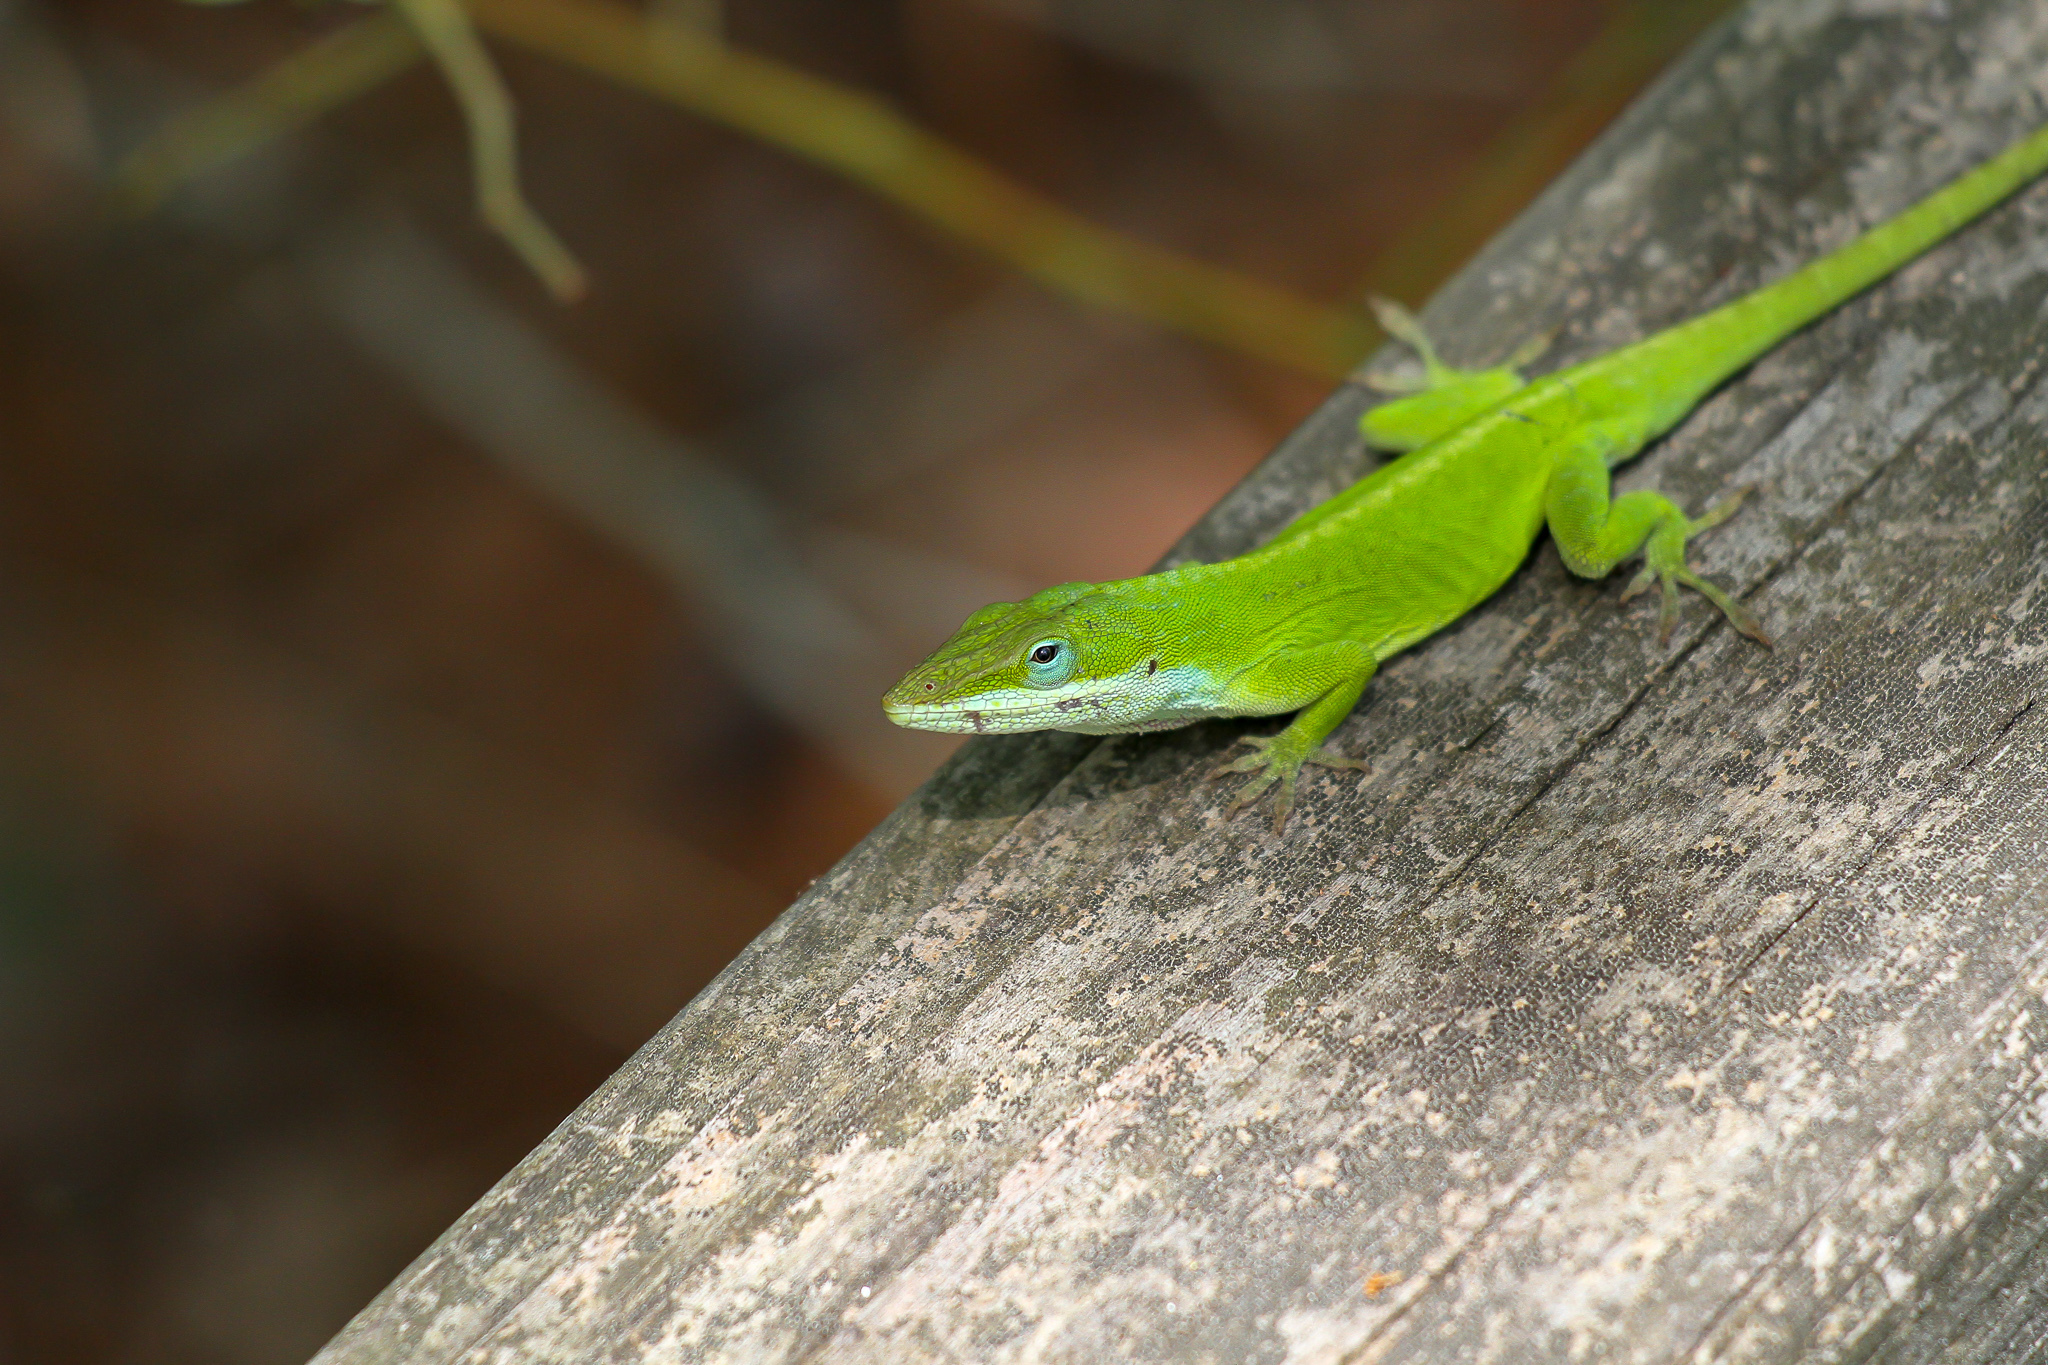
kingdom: Animalia
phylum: Chordata
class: Squamata
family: Dactyloidae
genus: Anolis
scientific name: Anolis carolinensis
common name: Green anole
